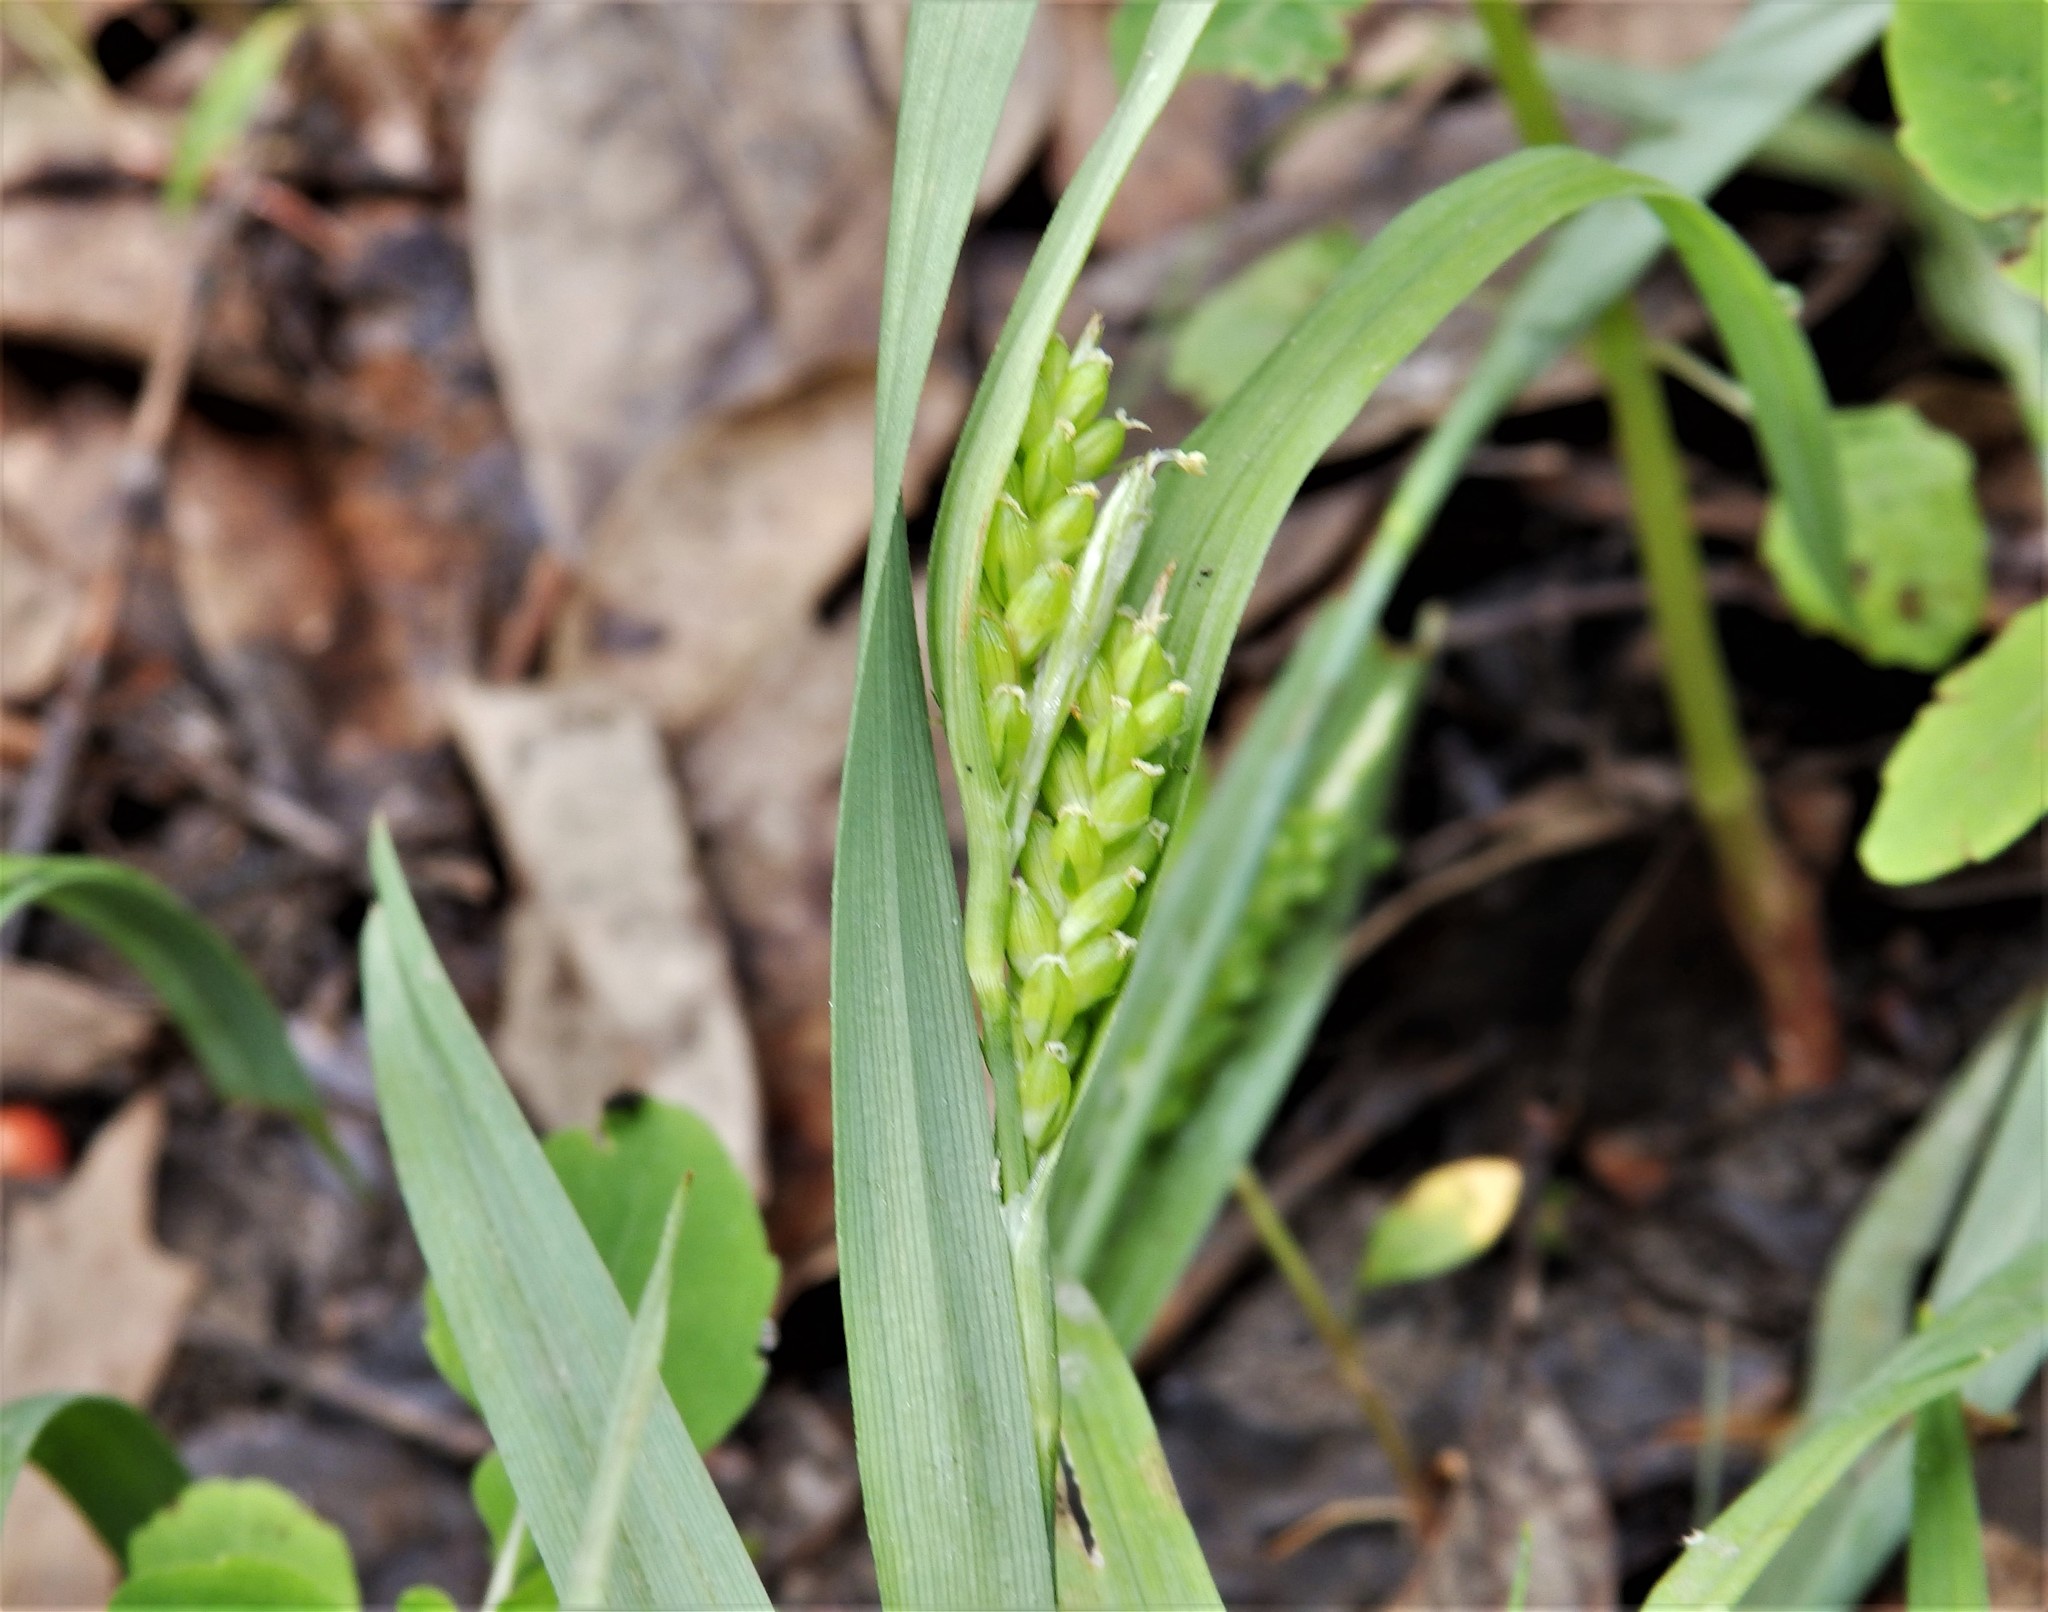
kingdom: Plantae
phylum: Tracheophyta
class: Liliopsida
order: Poales
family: Cyperaceae
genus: Carex
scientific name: Carex blanda
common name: Bland sedge
